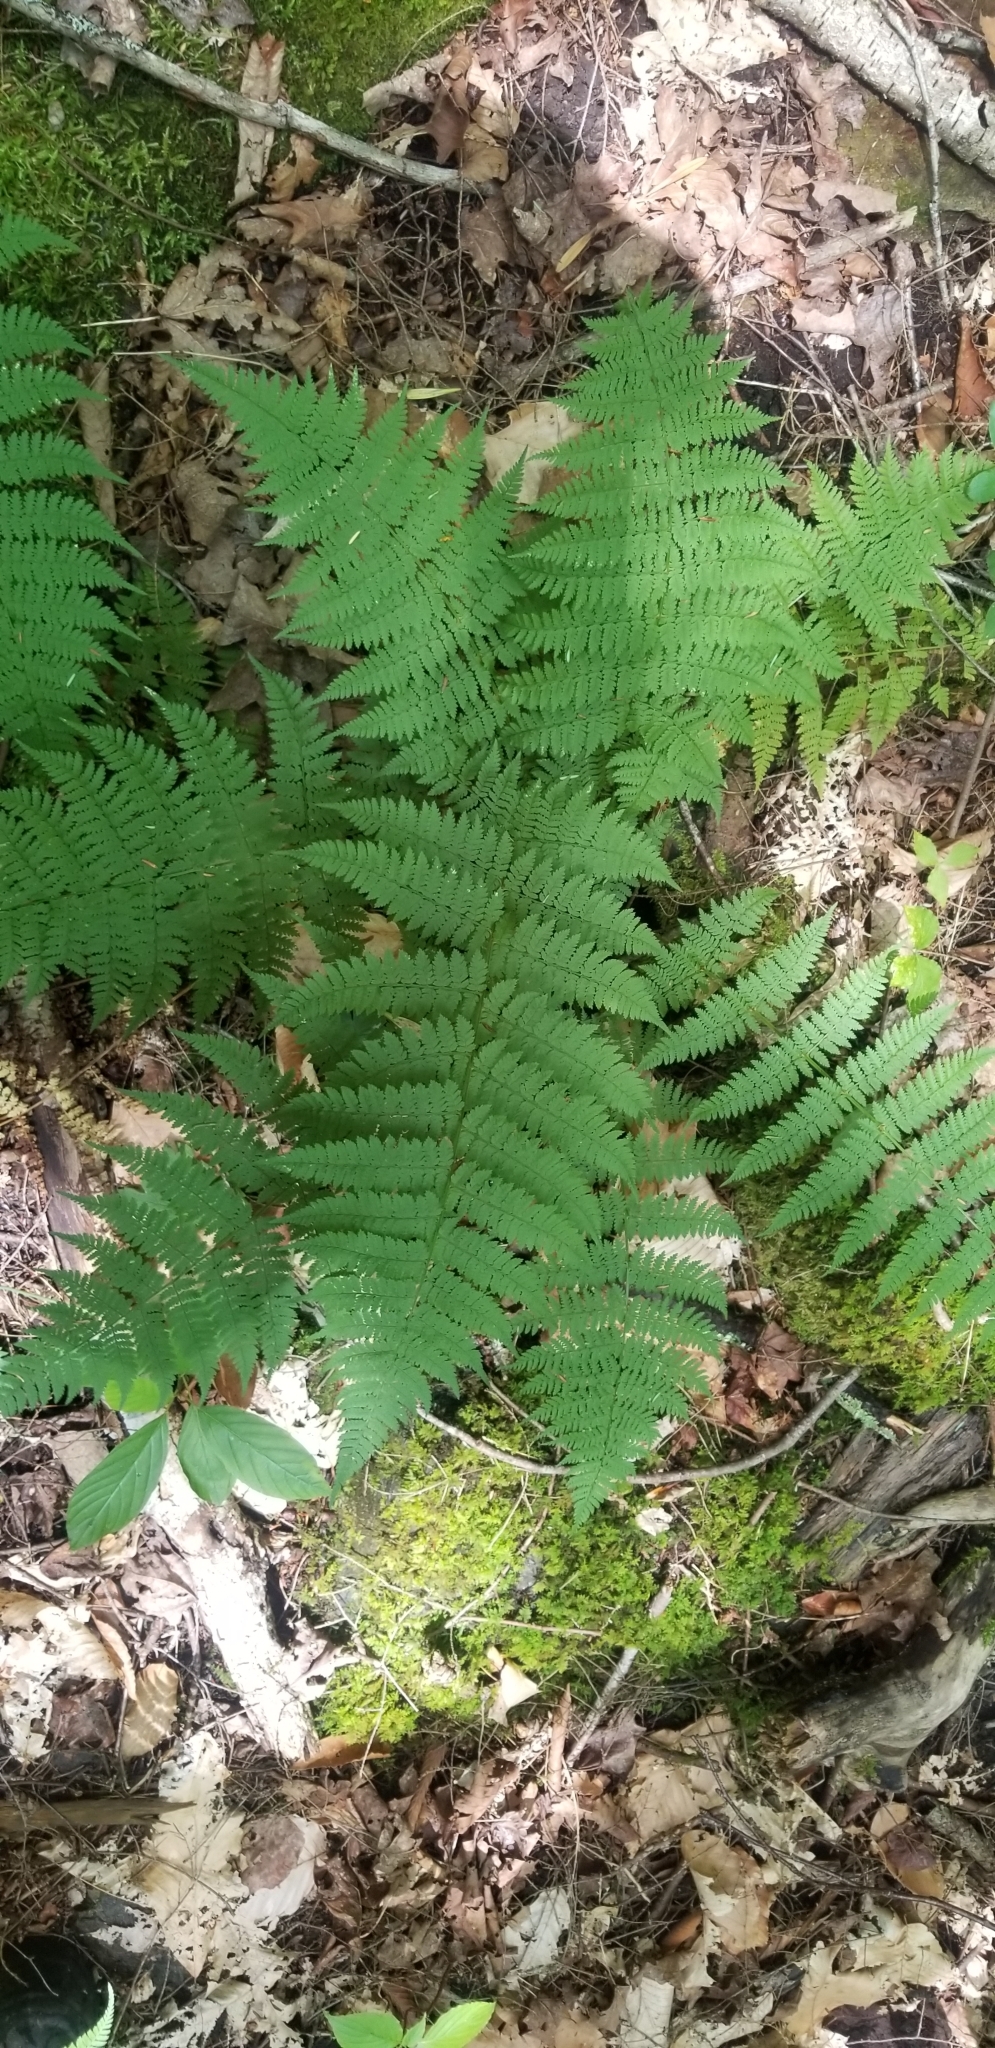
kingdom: Plantae
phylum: Tracheophyta
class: Polypodiopsida
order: Polypodiales
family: Dryopteridaceae
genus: Dryopteris
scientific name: Dryopteris intermedia
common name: Evergreen wood fern
